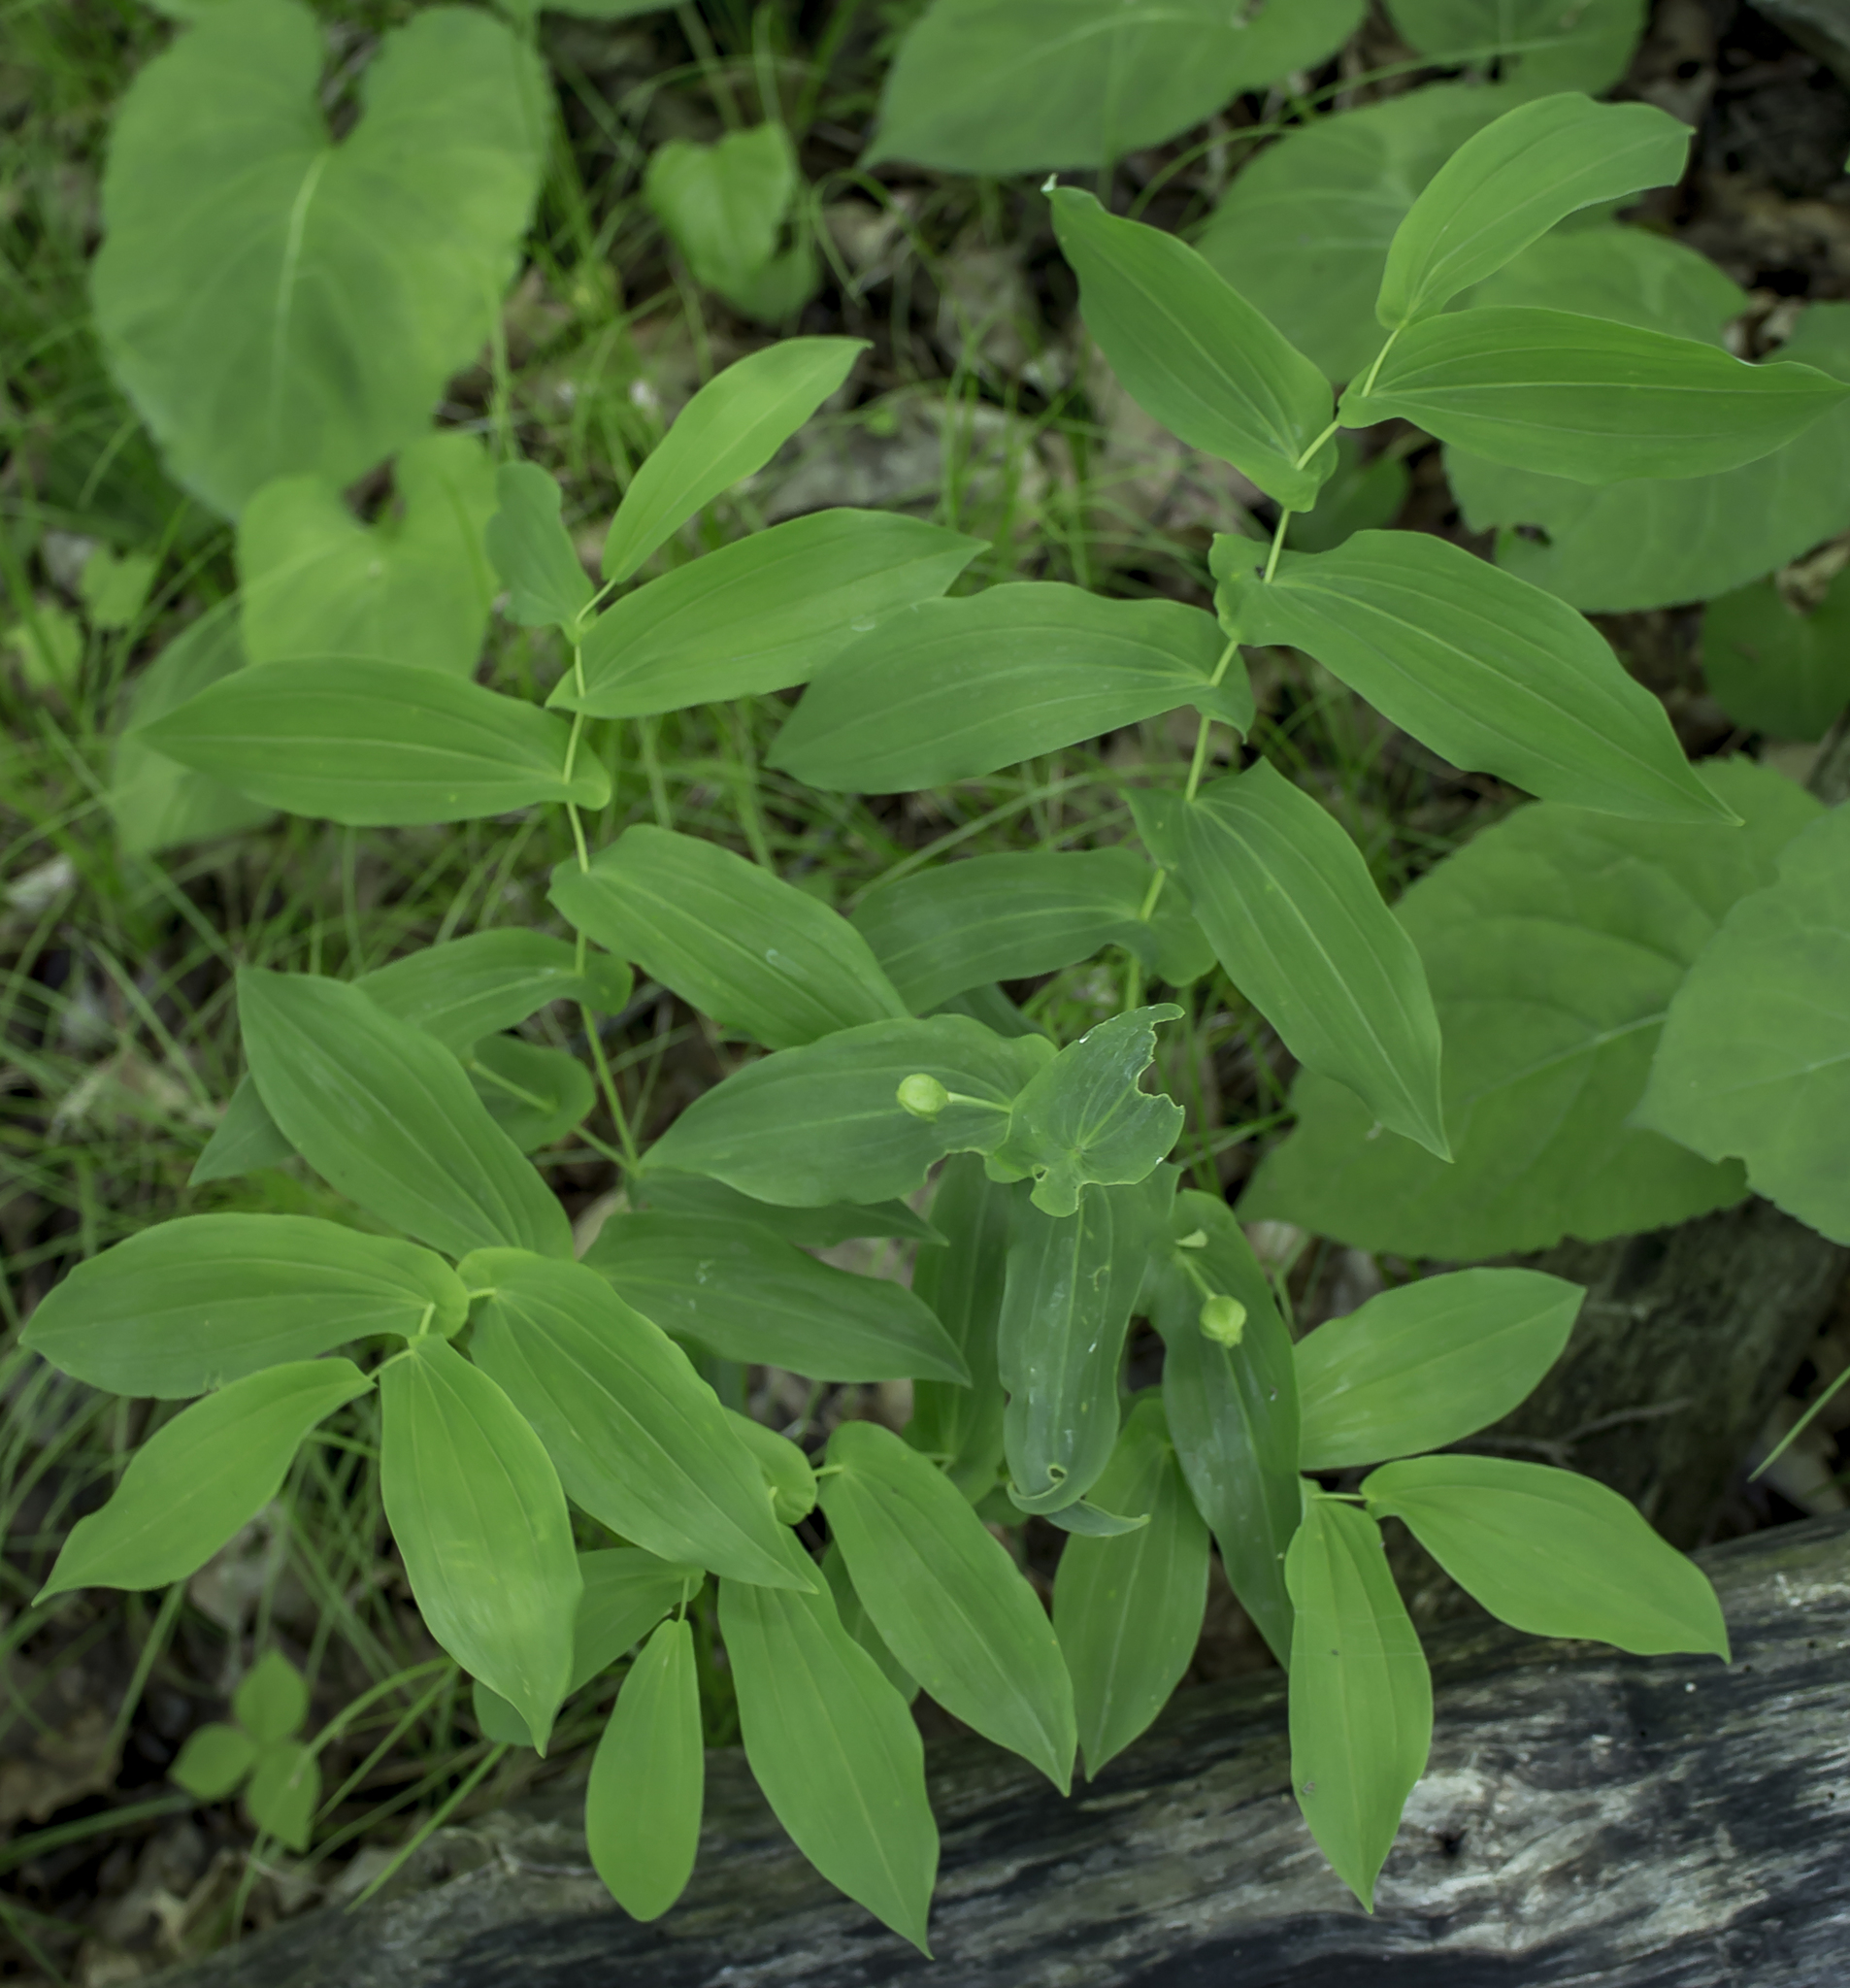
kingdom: Plantae
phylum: Tracheophyta
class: Liliopsida
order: Liliales
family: Colchicaceae
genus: Uvularia
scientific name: Uvularia grandiflora
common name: Bellwort
